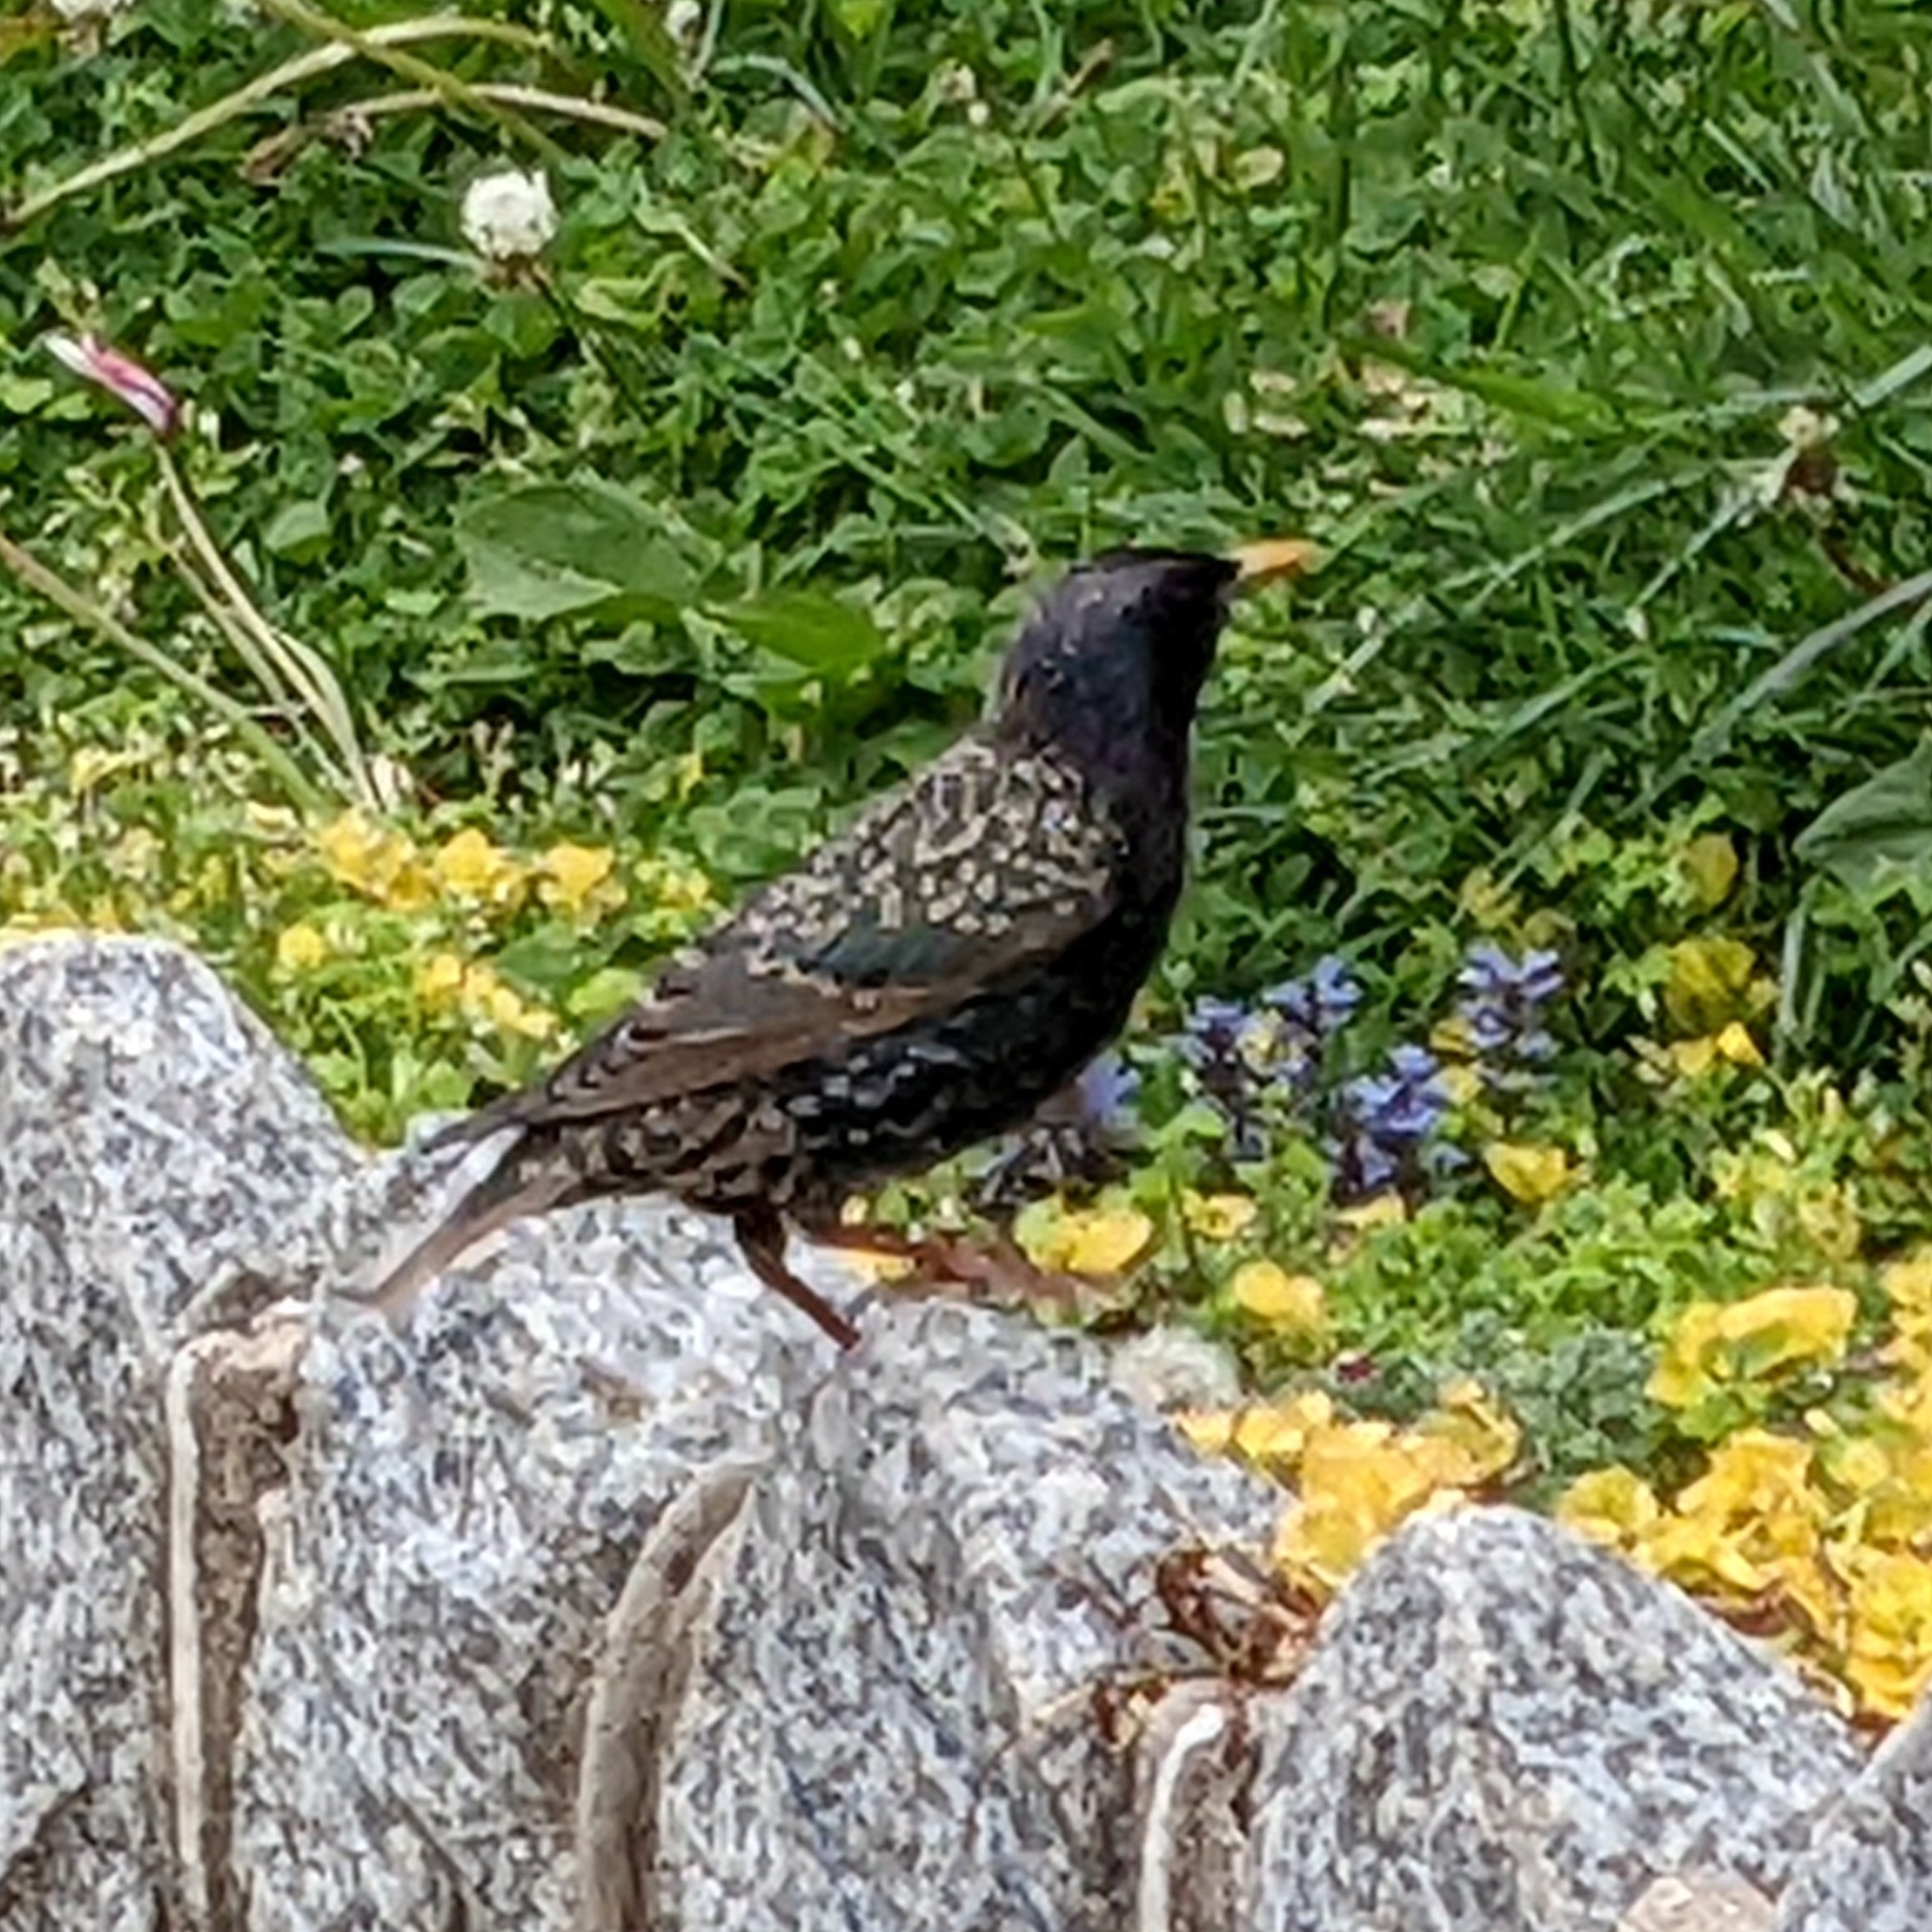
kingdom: Animalia
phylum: Chordata
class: Aves
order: Passeriformes
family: Sturnidae
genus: Sturnus
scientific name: Sturnus vulgaris
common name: Common starling
